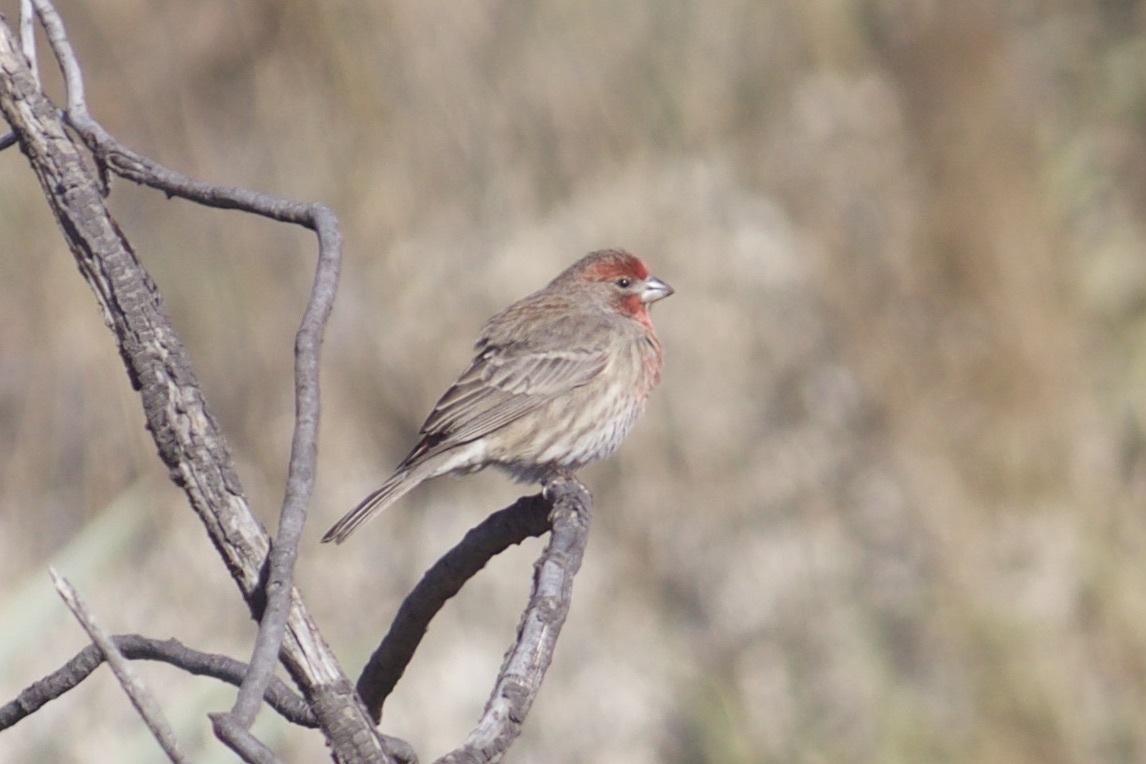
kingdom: Animalia
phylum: Chordata
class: Aves
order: Passeriformes
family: Fringillidae
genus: Haemorhous
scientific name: Haemorhous mexicanus
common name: House finch
